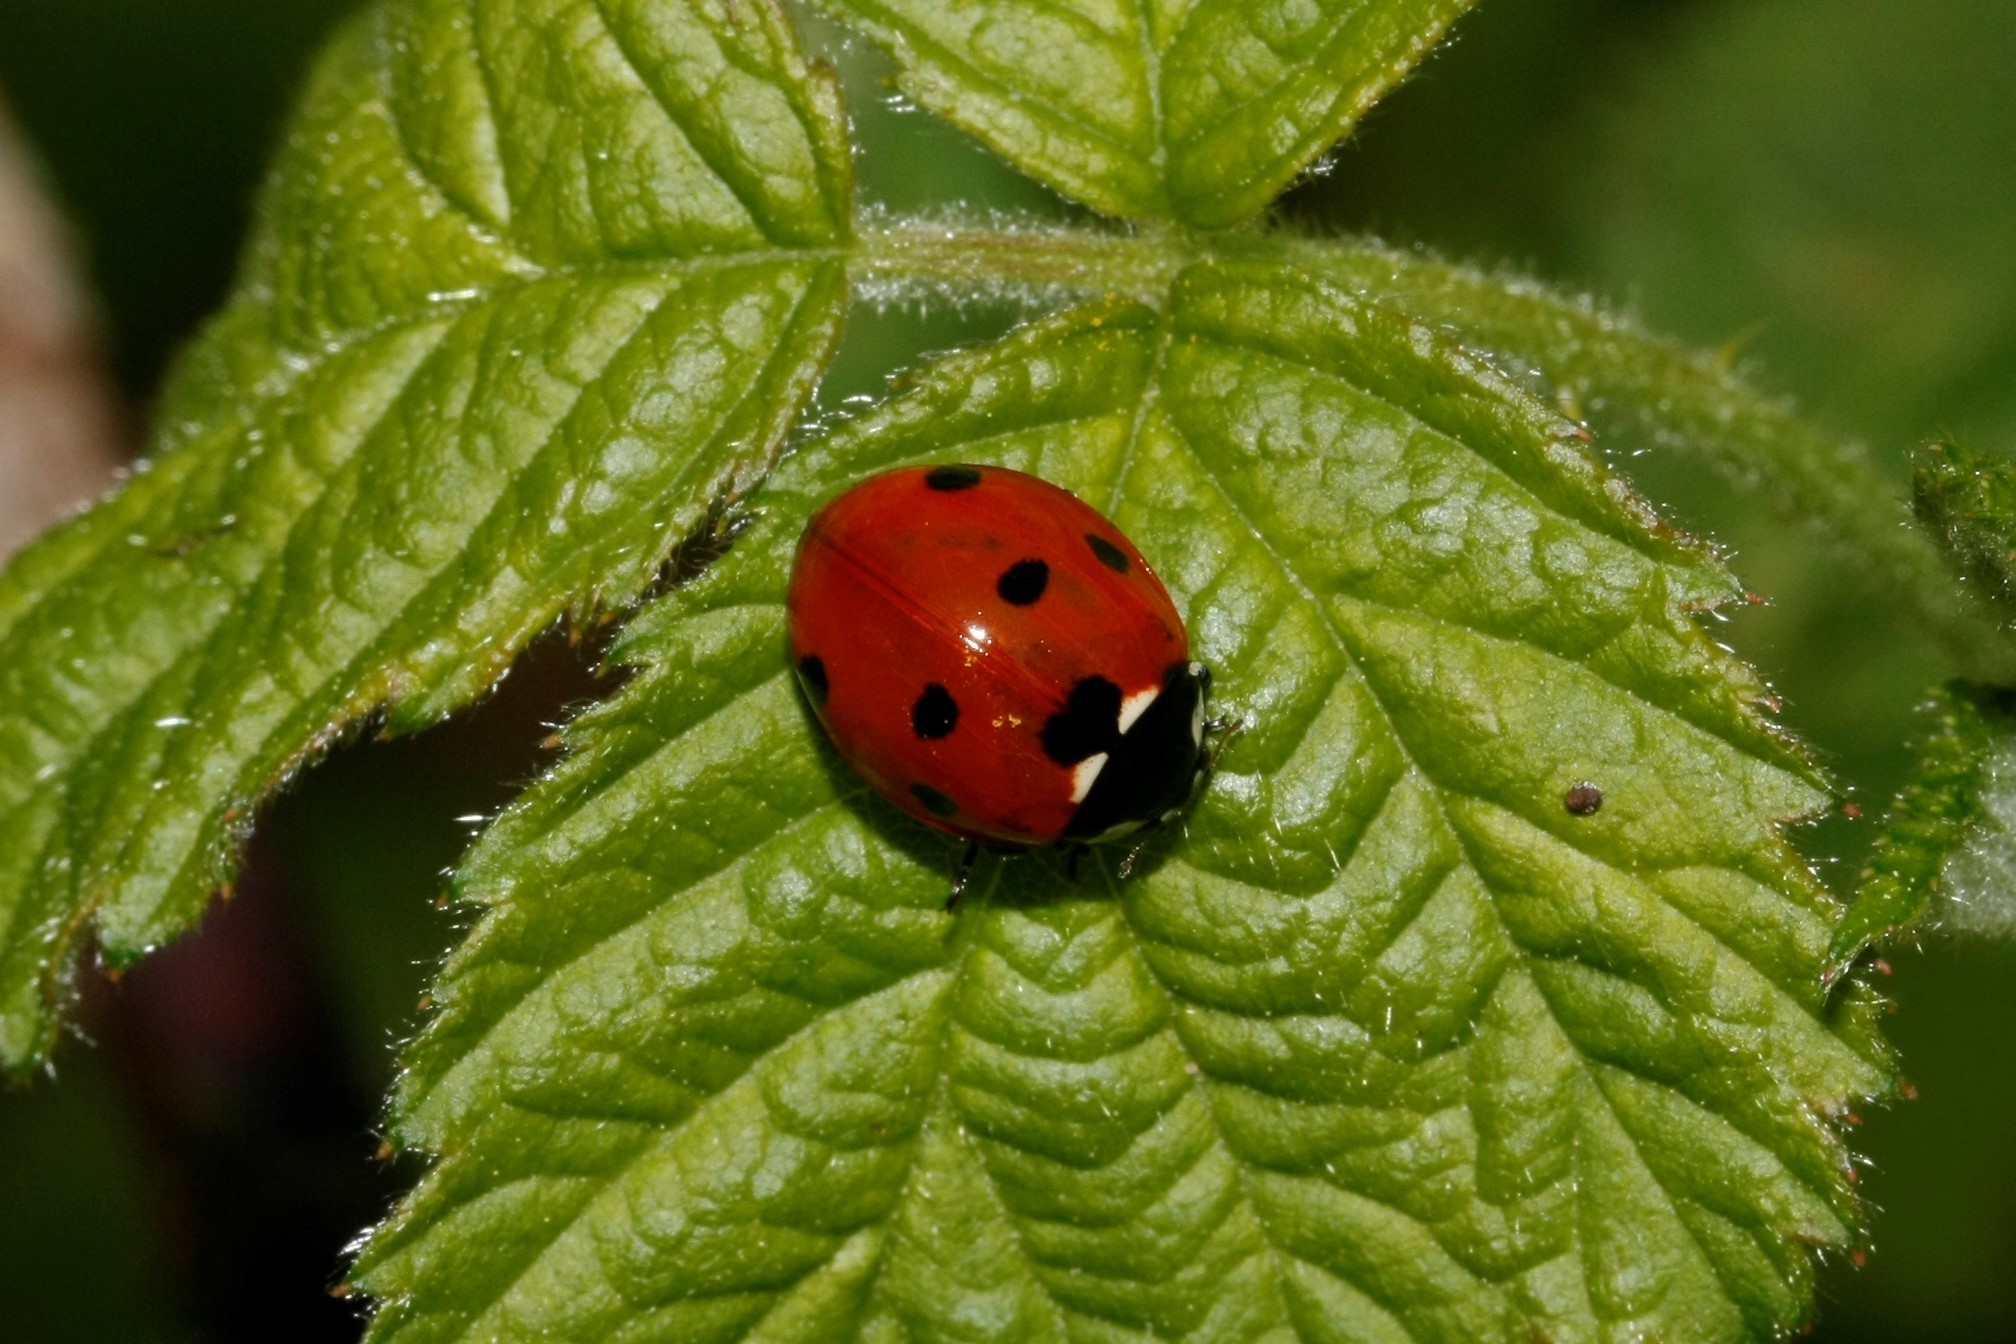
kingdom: Animalia
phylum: Arthropoda
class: Insecta
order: Coleoptera
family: Coccinellidae
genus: Coccinella
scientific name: Coccinella septempunctata
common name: Sevenspotted lady beetle
